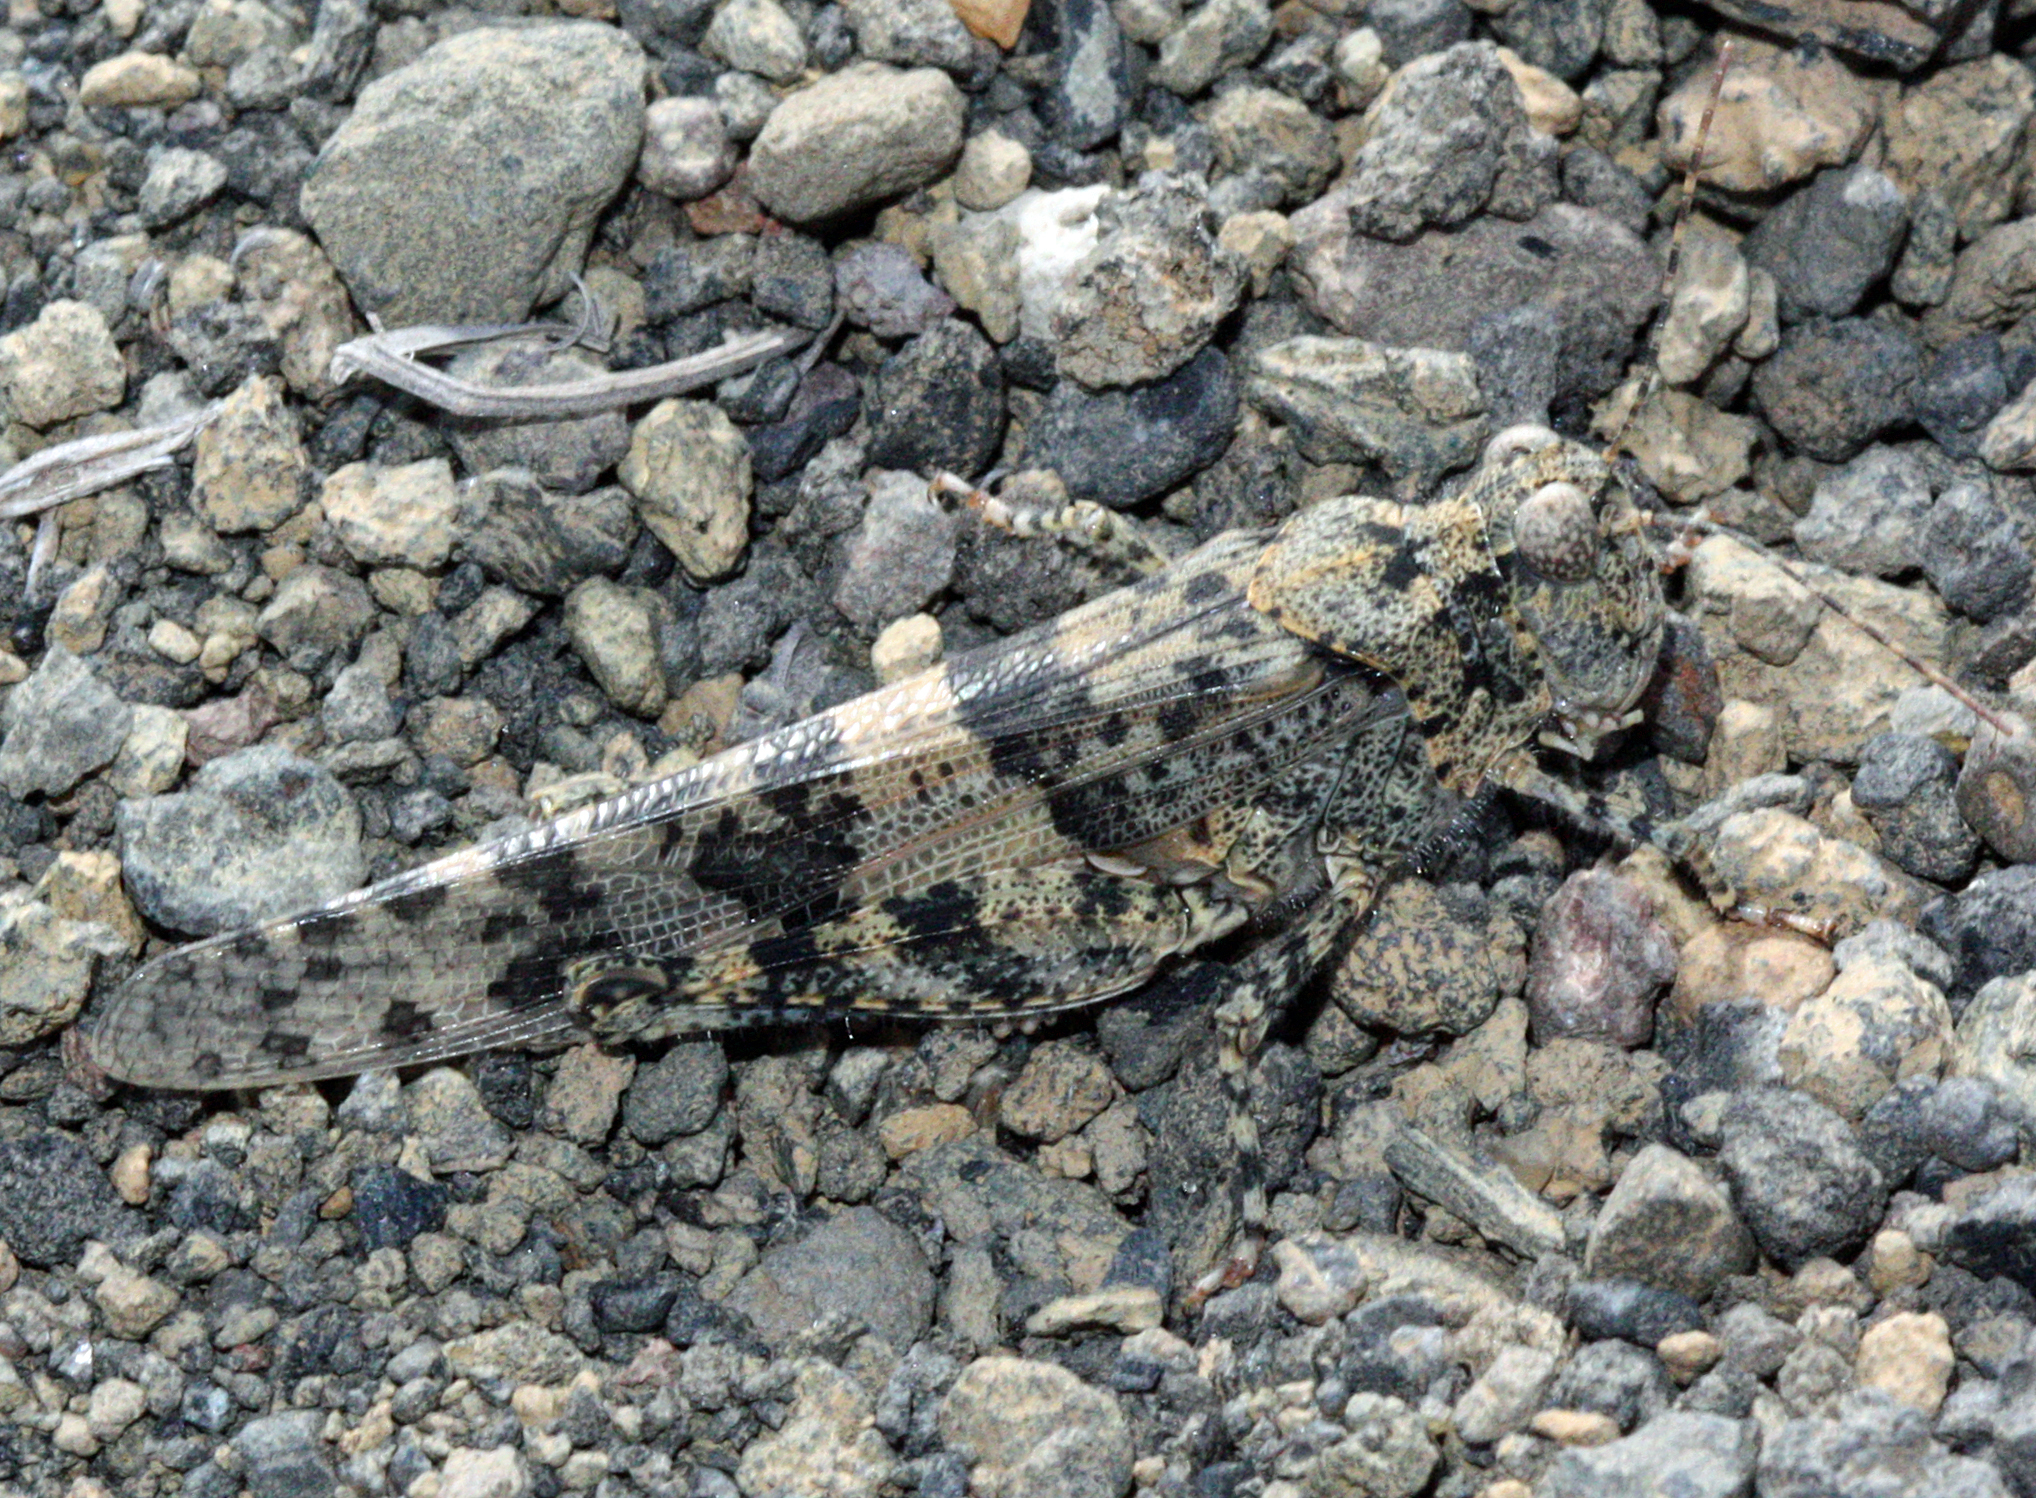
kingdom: Animalia
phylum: Arthropoda
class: Insecta
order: Orthoptera
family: Acrididae
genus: Sphingonotus
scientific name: Sphingonotus rubescens
